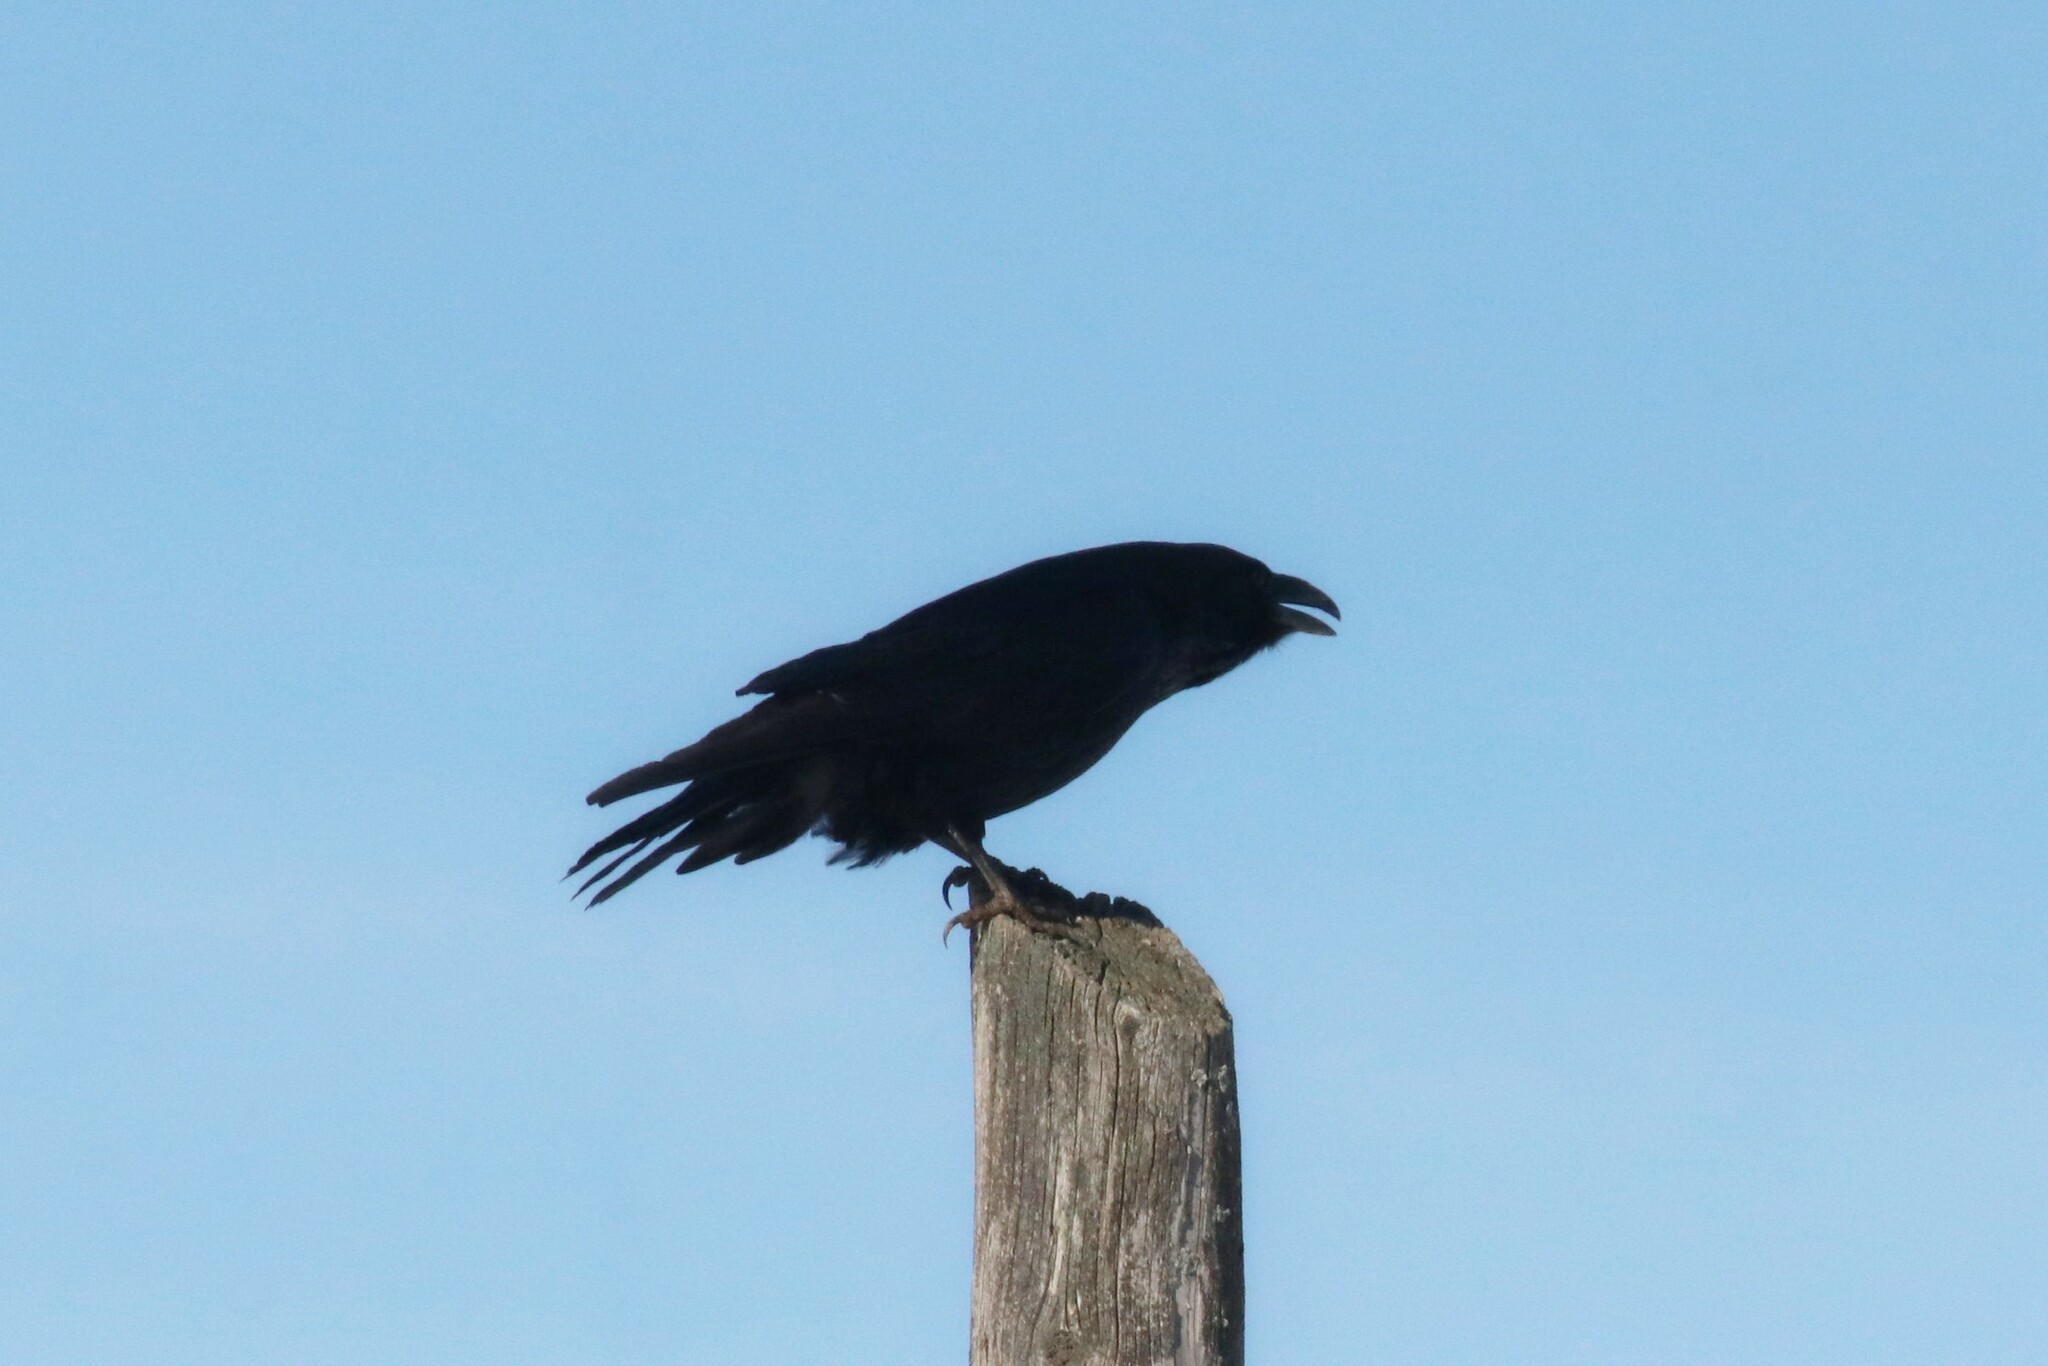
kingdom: Animalia
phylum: Chordata
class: Aves
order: Passeriformes
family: Corvidae
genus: Corvus
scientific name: Corvus corax
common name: Common raven
